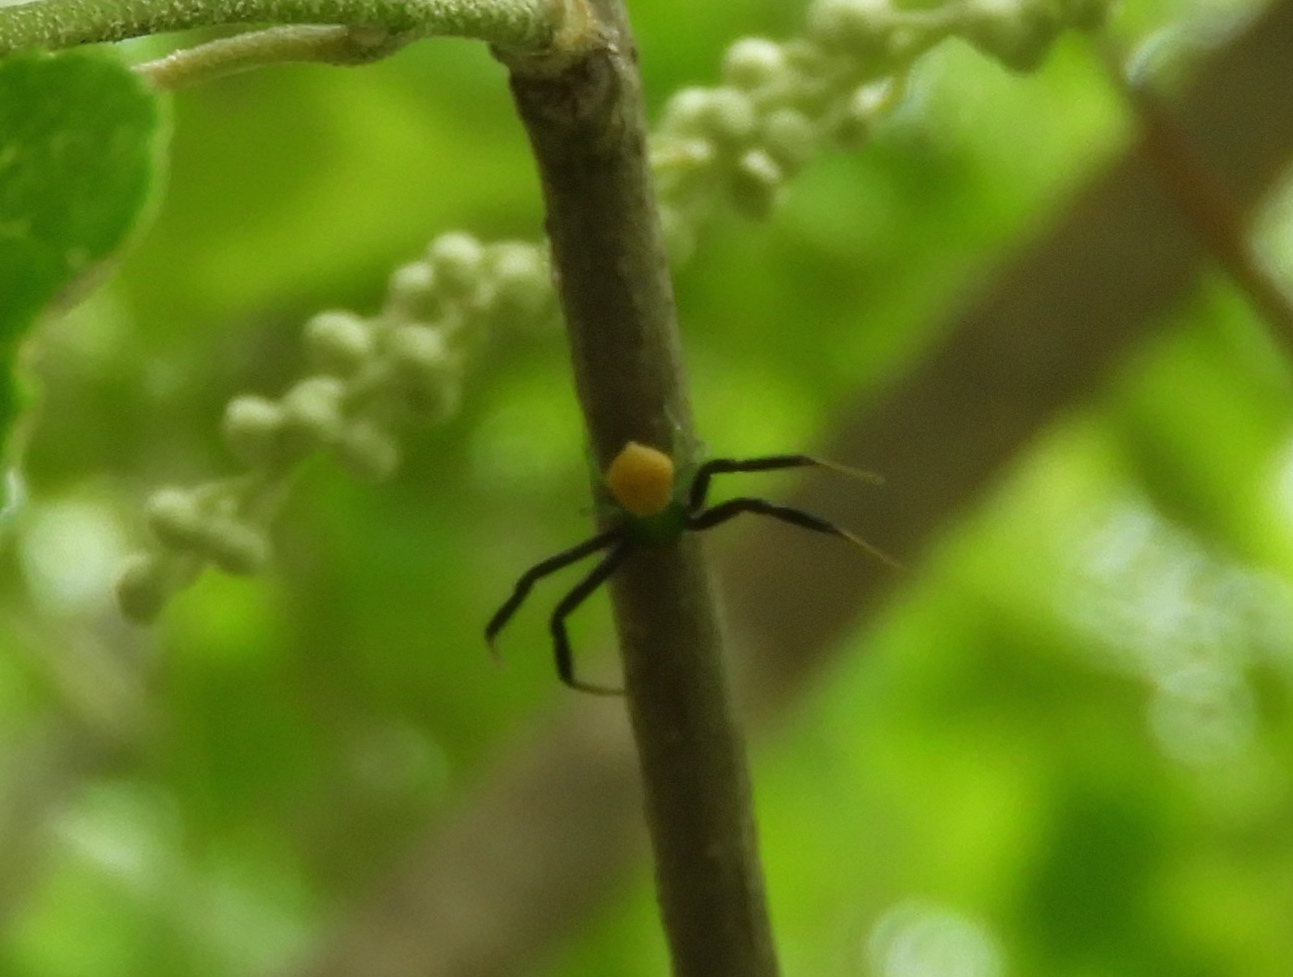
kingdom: Animalia
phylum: Arthropoda
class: Arachnida
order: Araneae
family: Thomisidae
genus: Misumenoides
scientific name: Misumenoides
